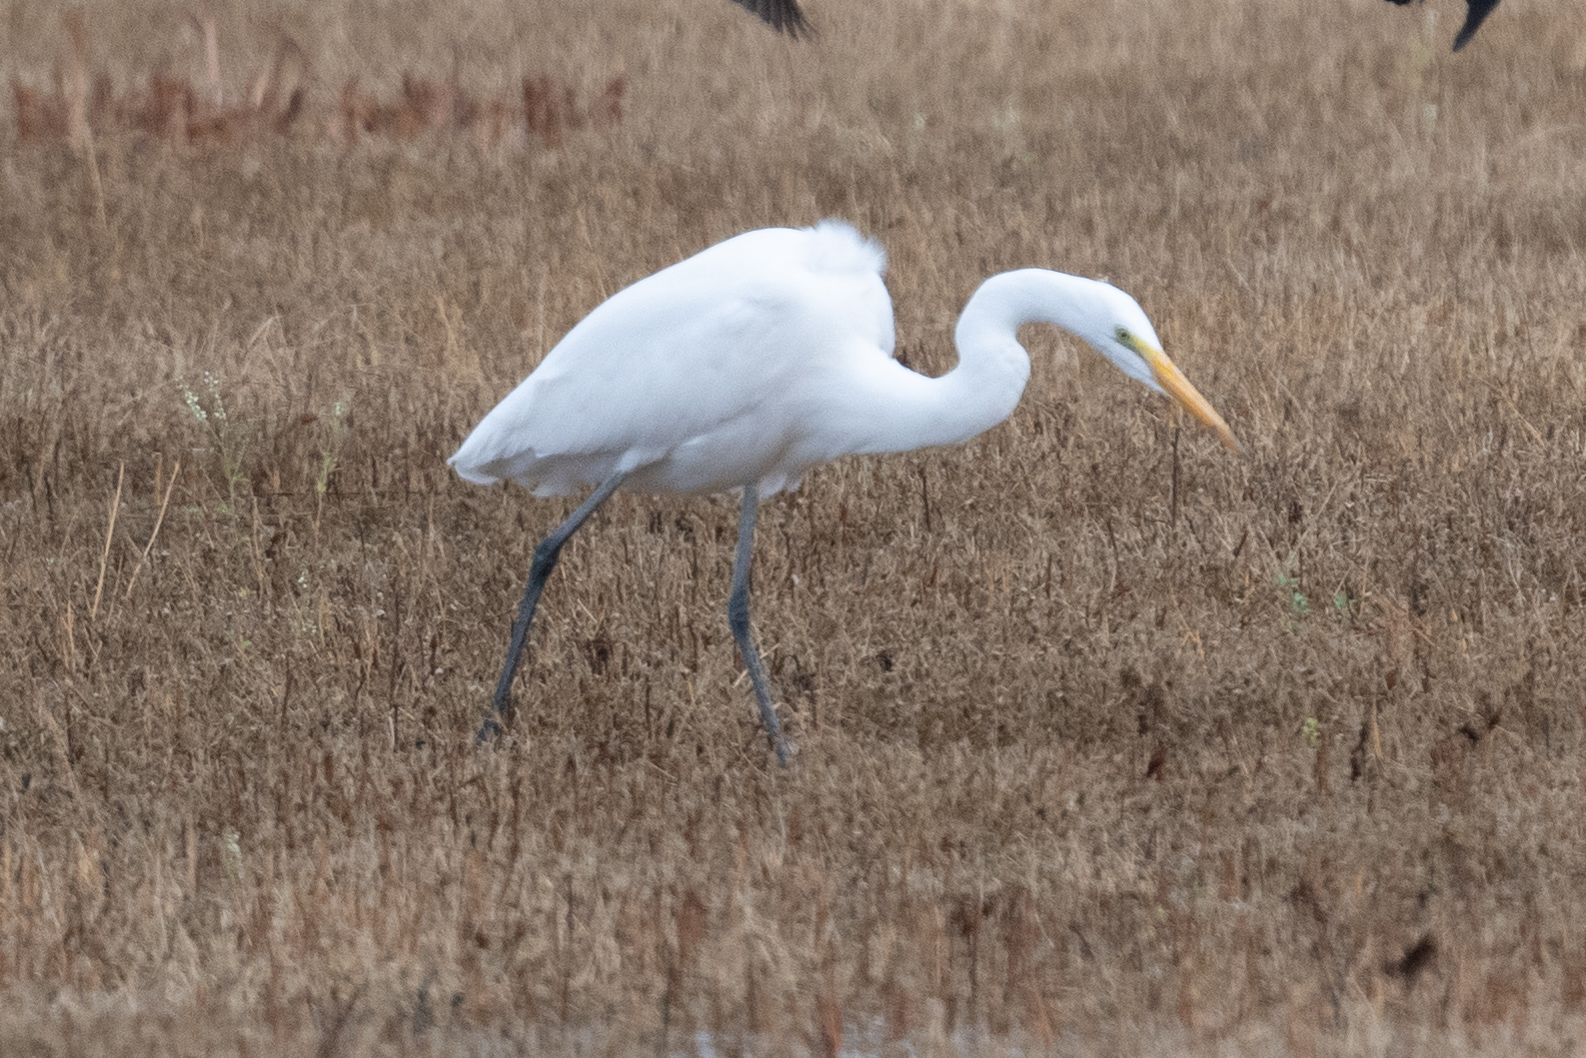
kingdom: Animalia
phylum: Chordata
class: Aves
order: Pelecaniformes
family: Ardeidae
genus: Ardea
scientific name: Ardea alba
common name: Great egret
